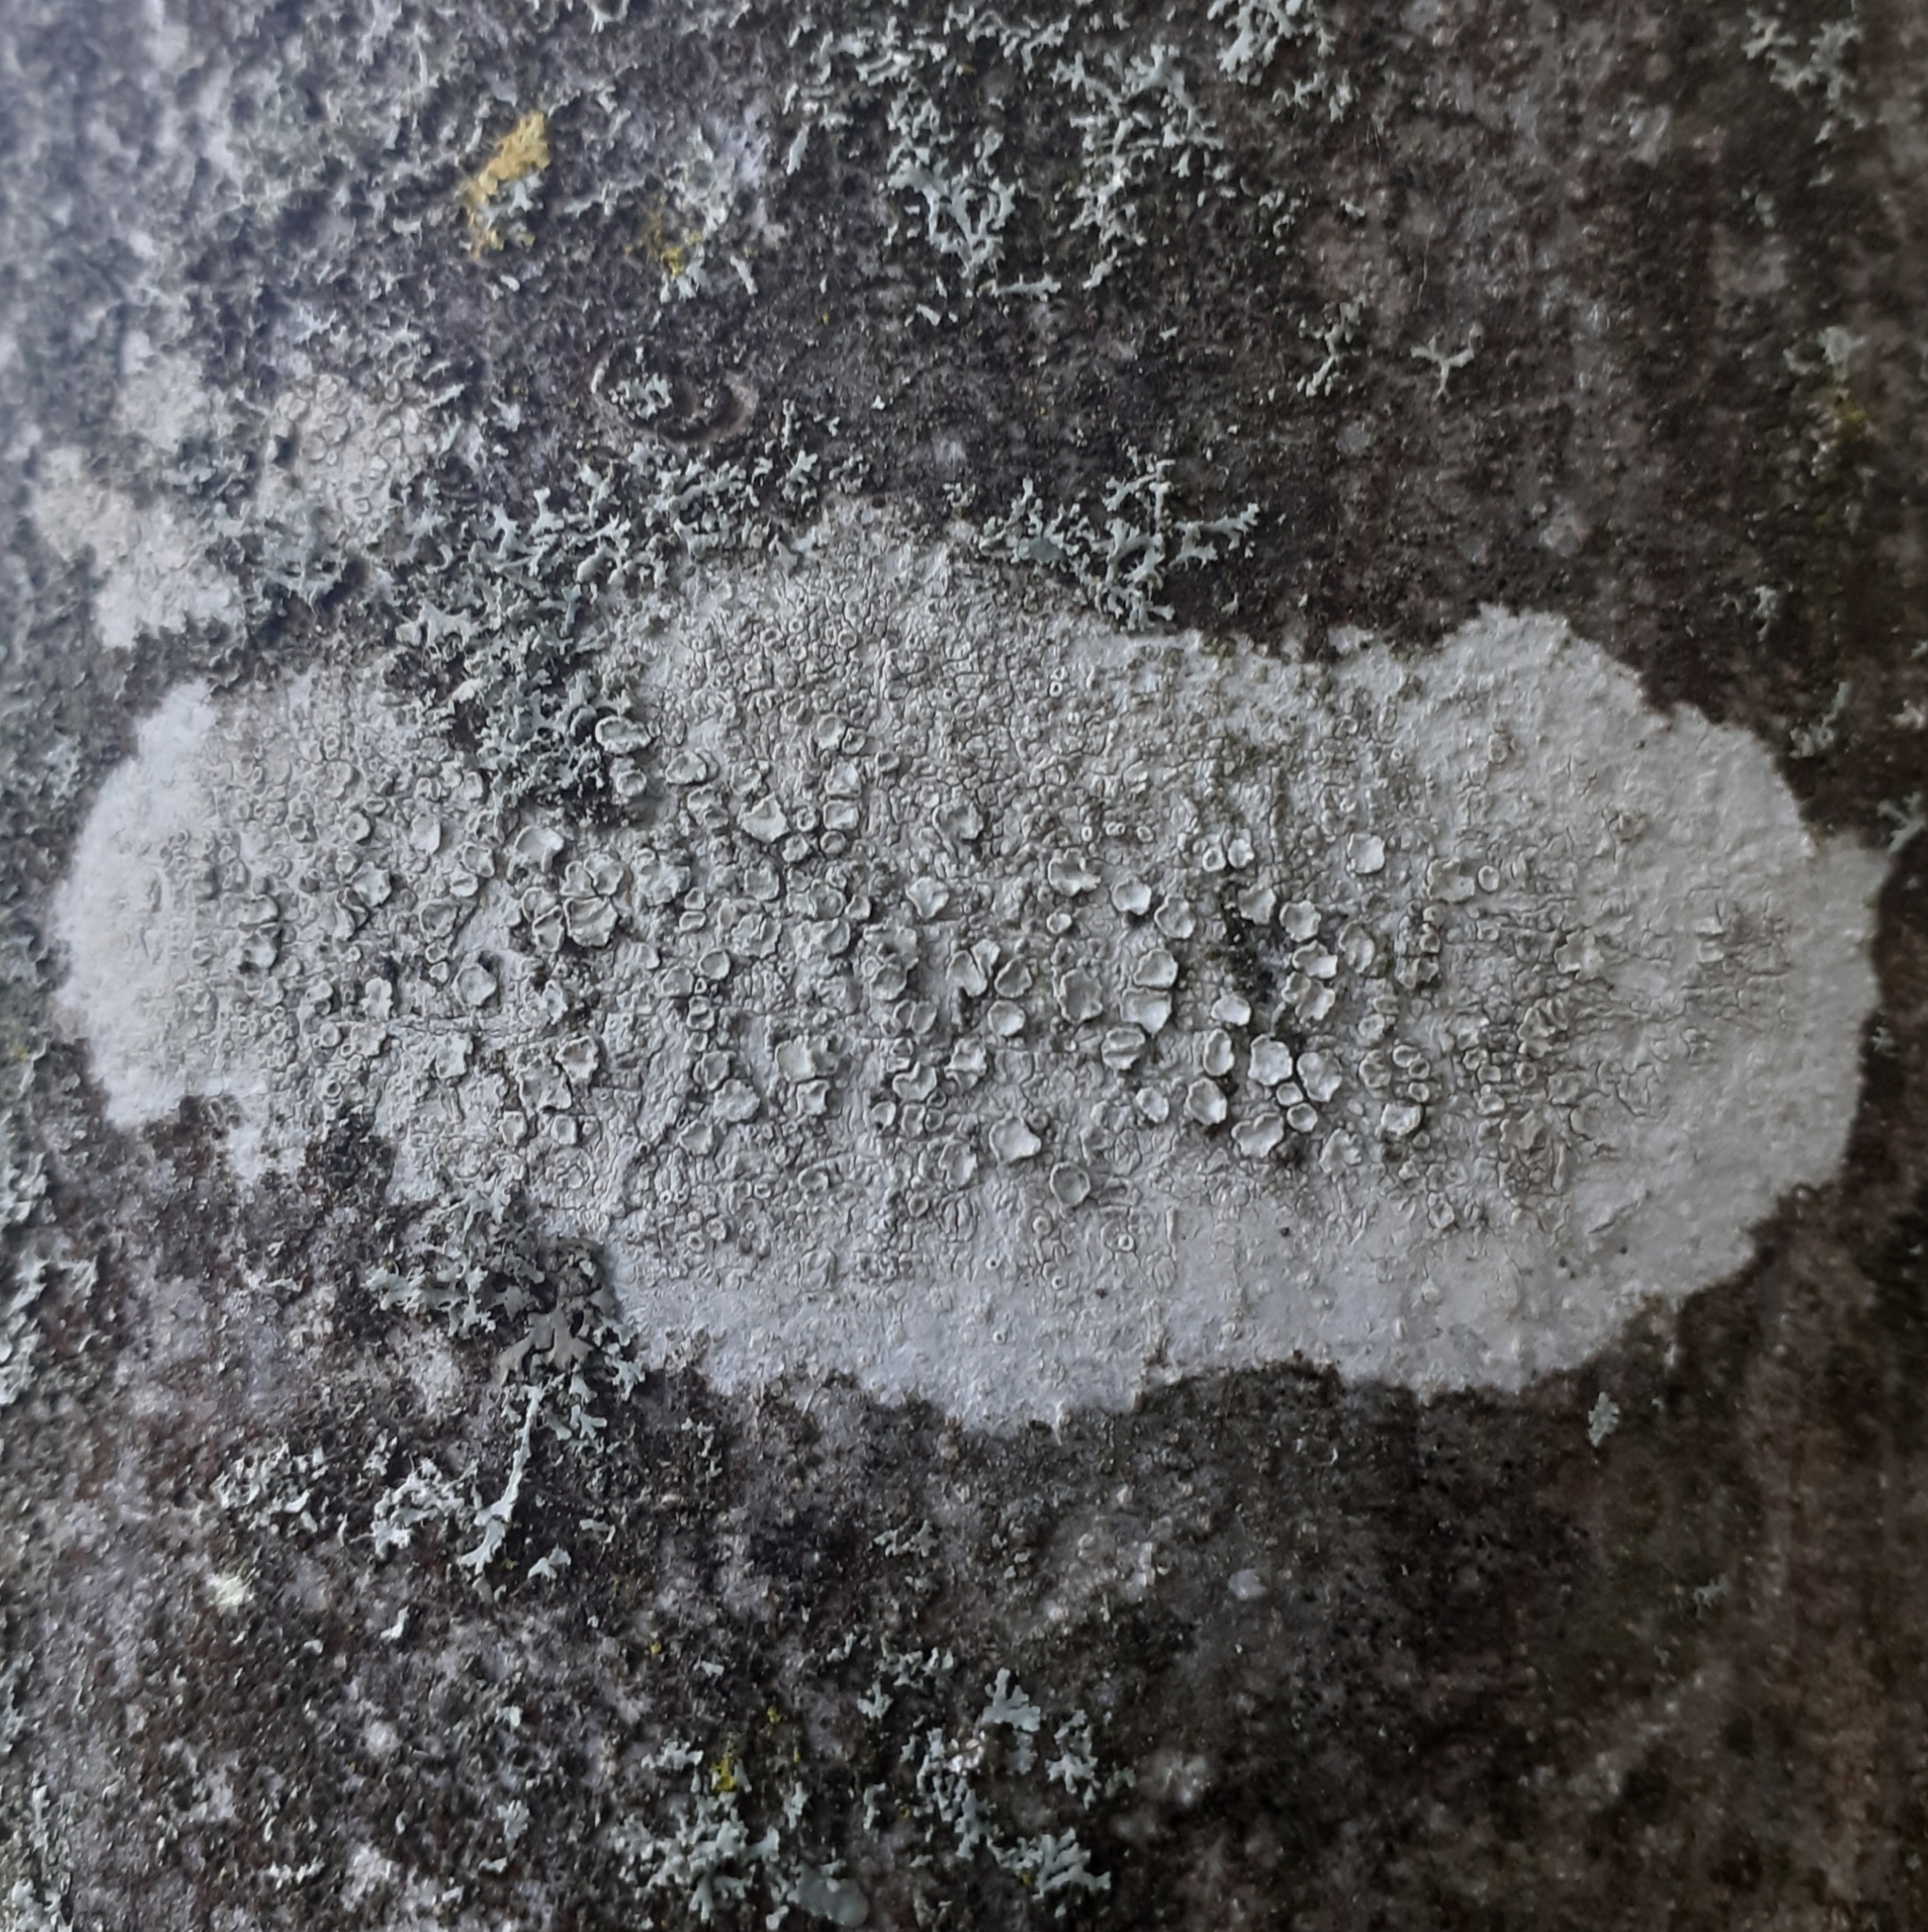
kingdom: Fungi
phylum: Ascomycota
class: Lecanoromycetes
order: Lecanorales
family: Lecanoraceae
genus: Glaucomaria
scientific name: Glaucomaria carpinea
